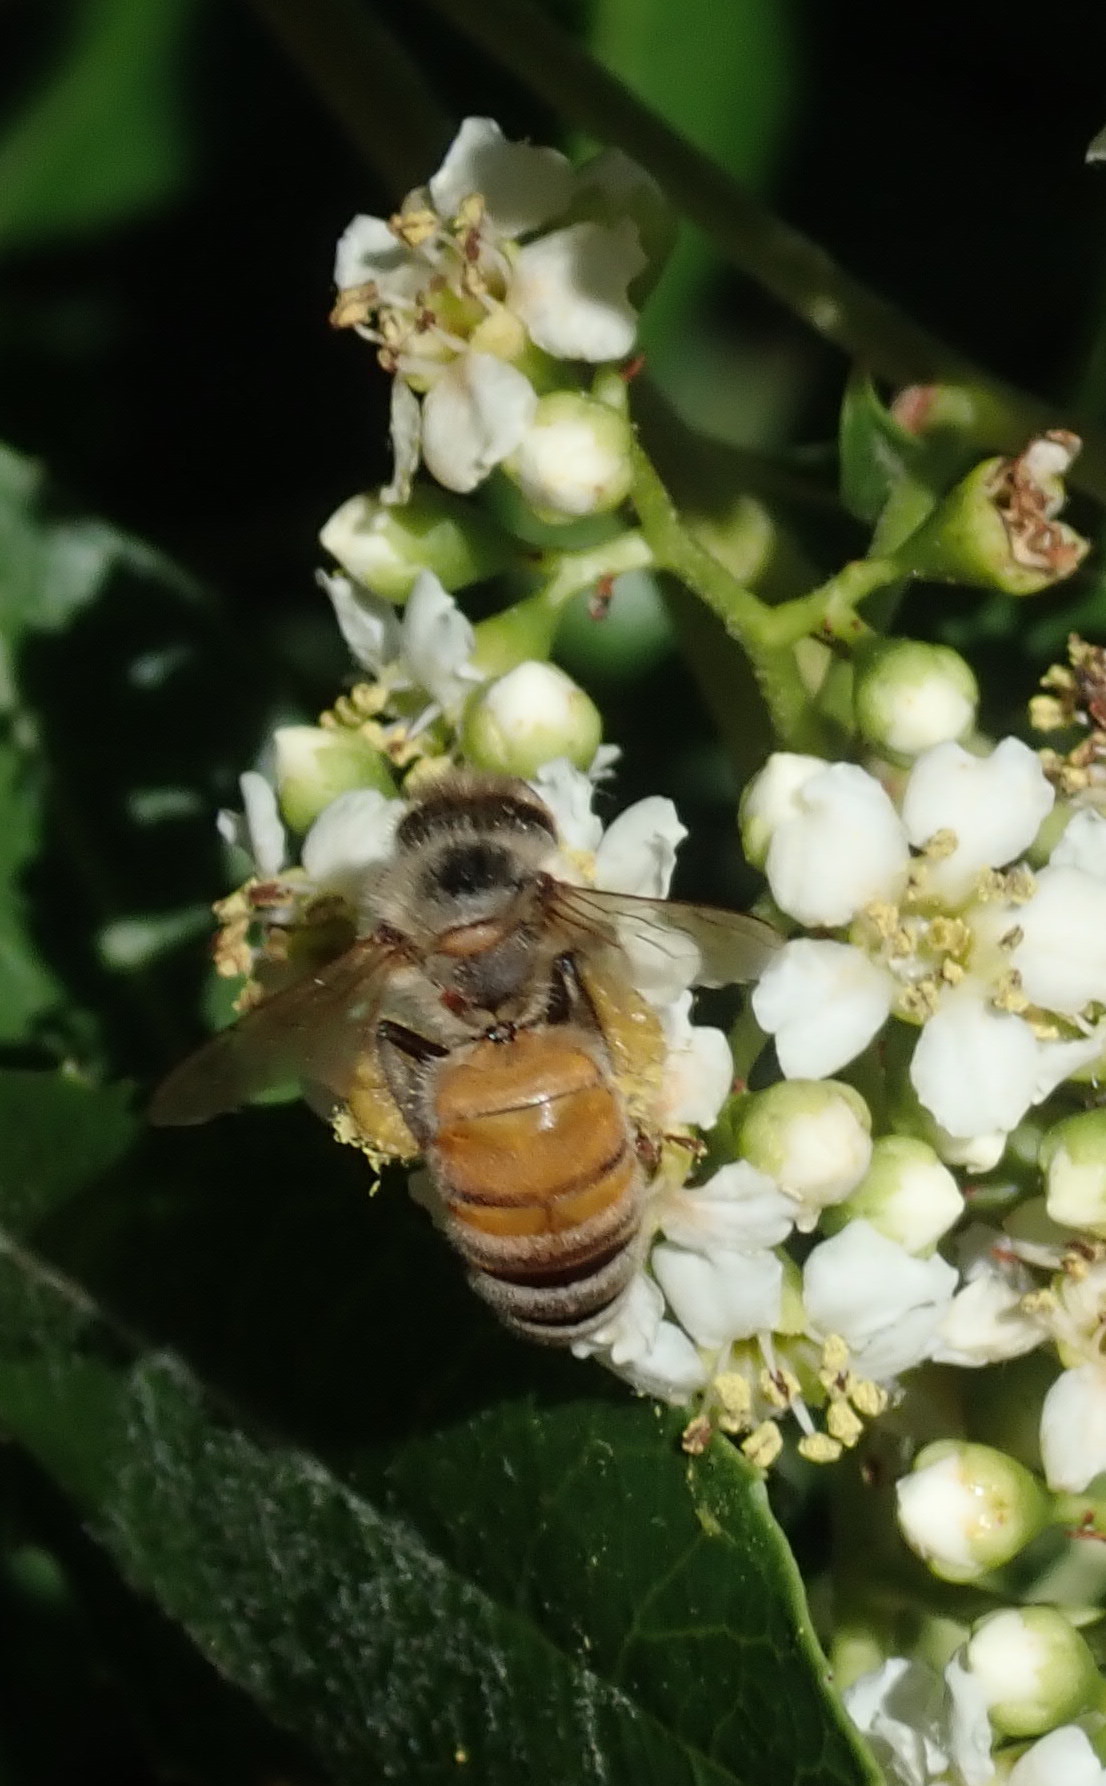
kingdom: Animalia
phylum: Arthropoda
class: Insecta
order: Hymenoptera
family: Apidae
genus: Apis
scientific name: Apis mellifera
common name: Honey bee
